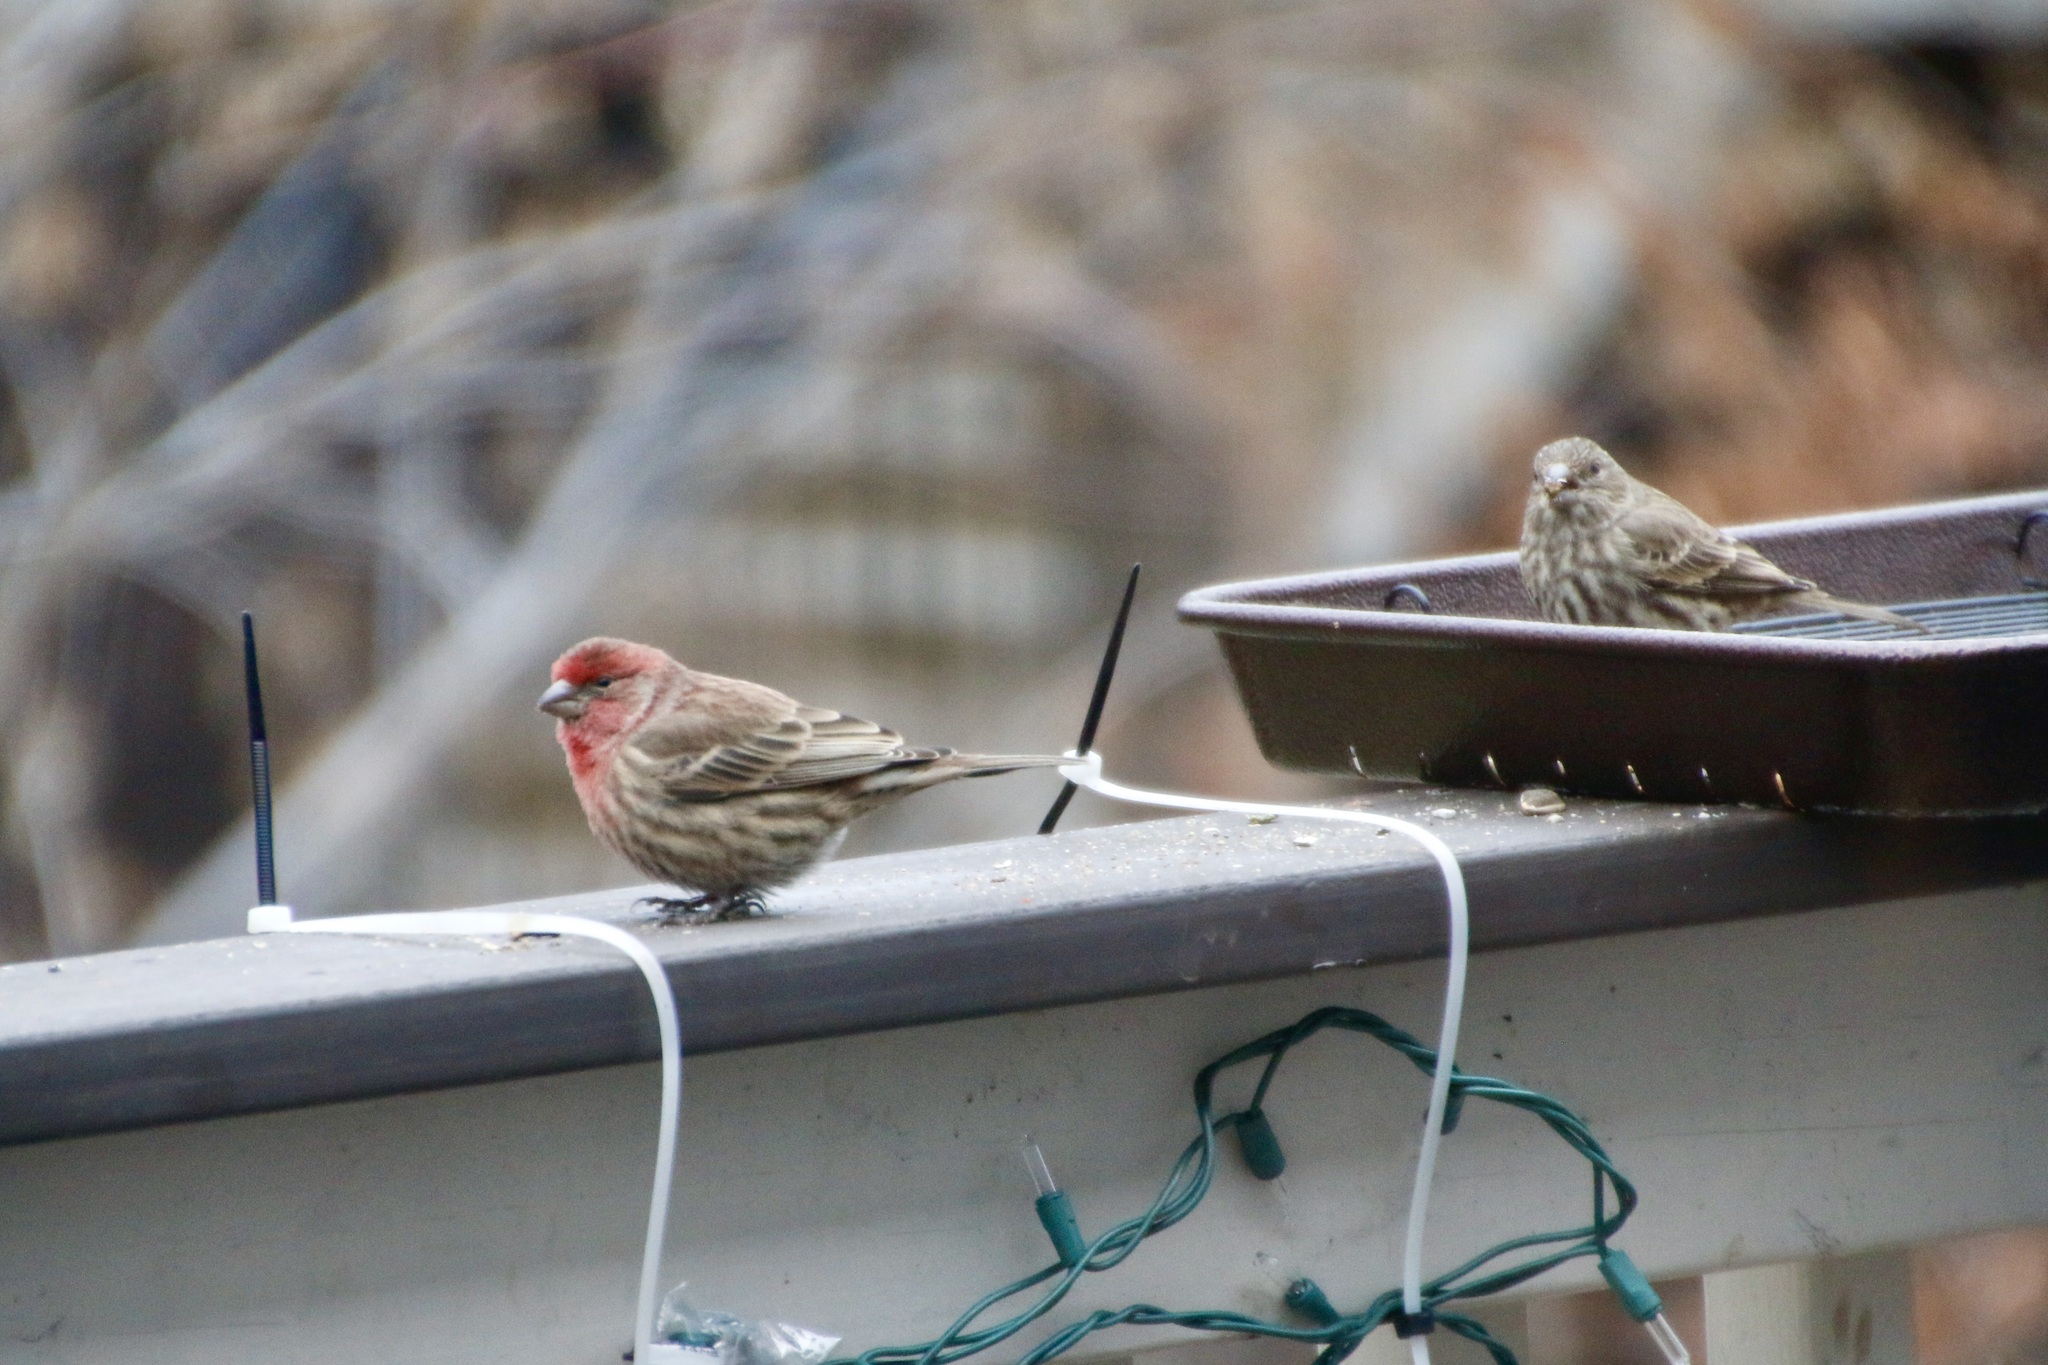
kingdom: Animalia
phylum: Chordata
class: Aves
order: Passeriformes
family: Fringillidae
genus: Haemorhous
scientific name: Haemorhous mexicanus
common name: House finch
